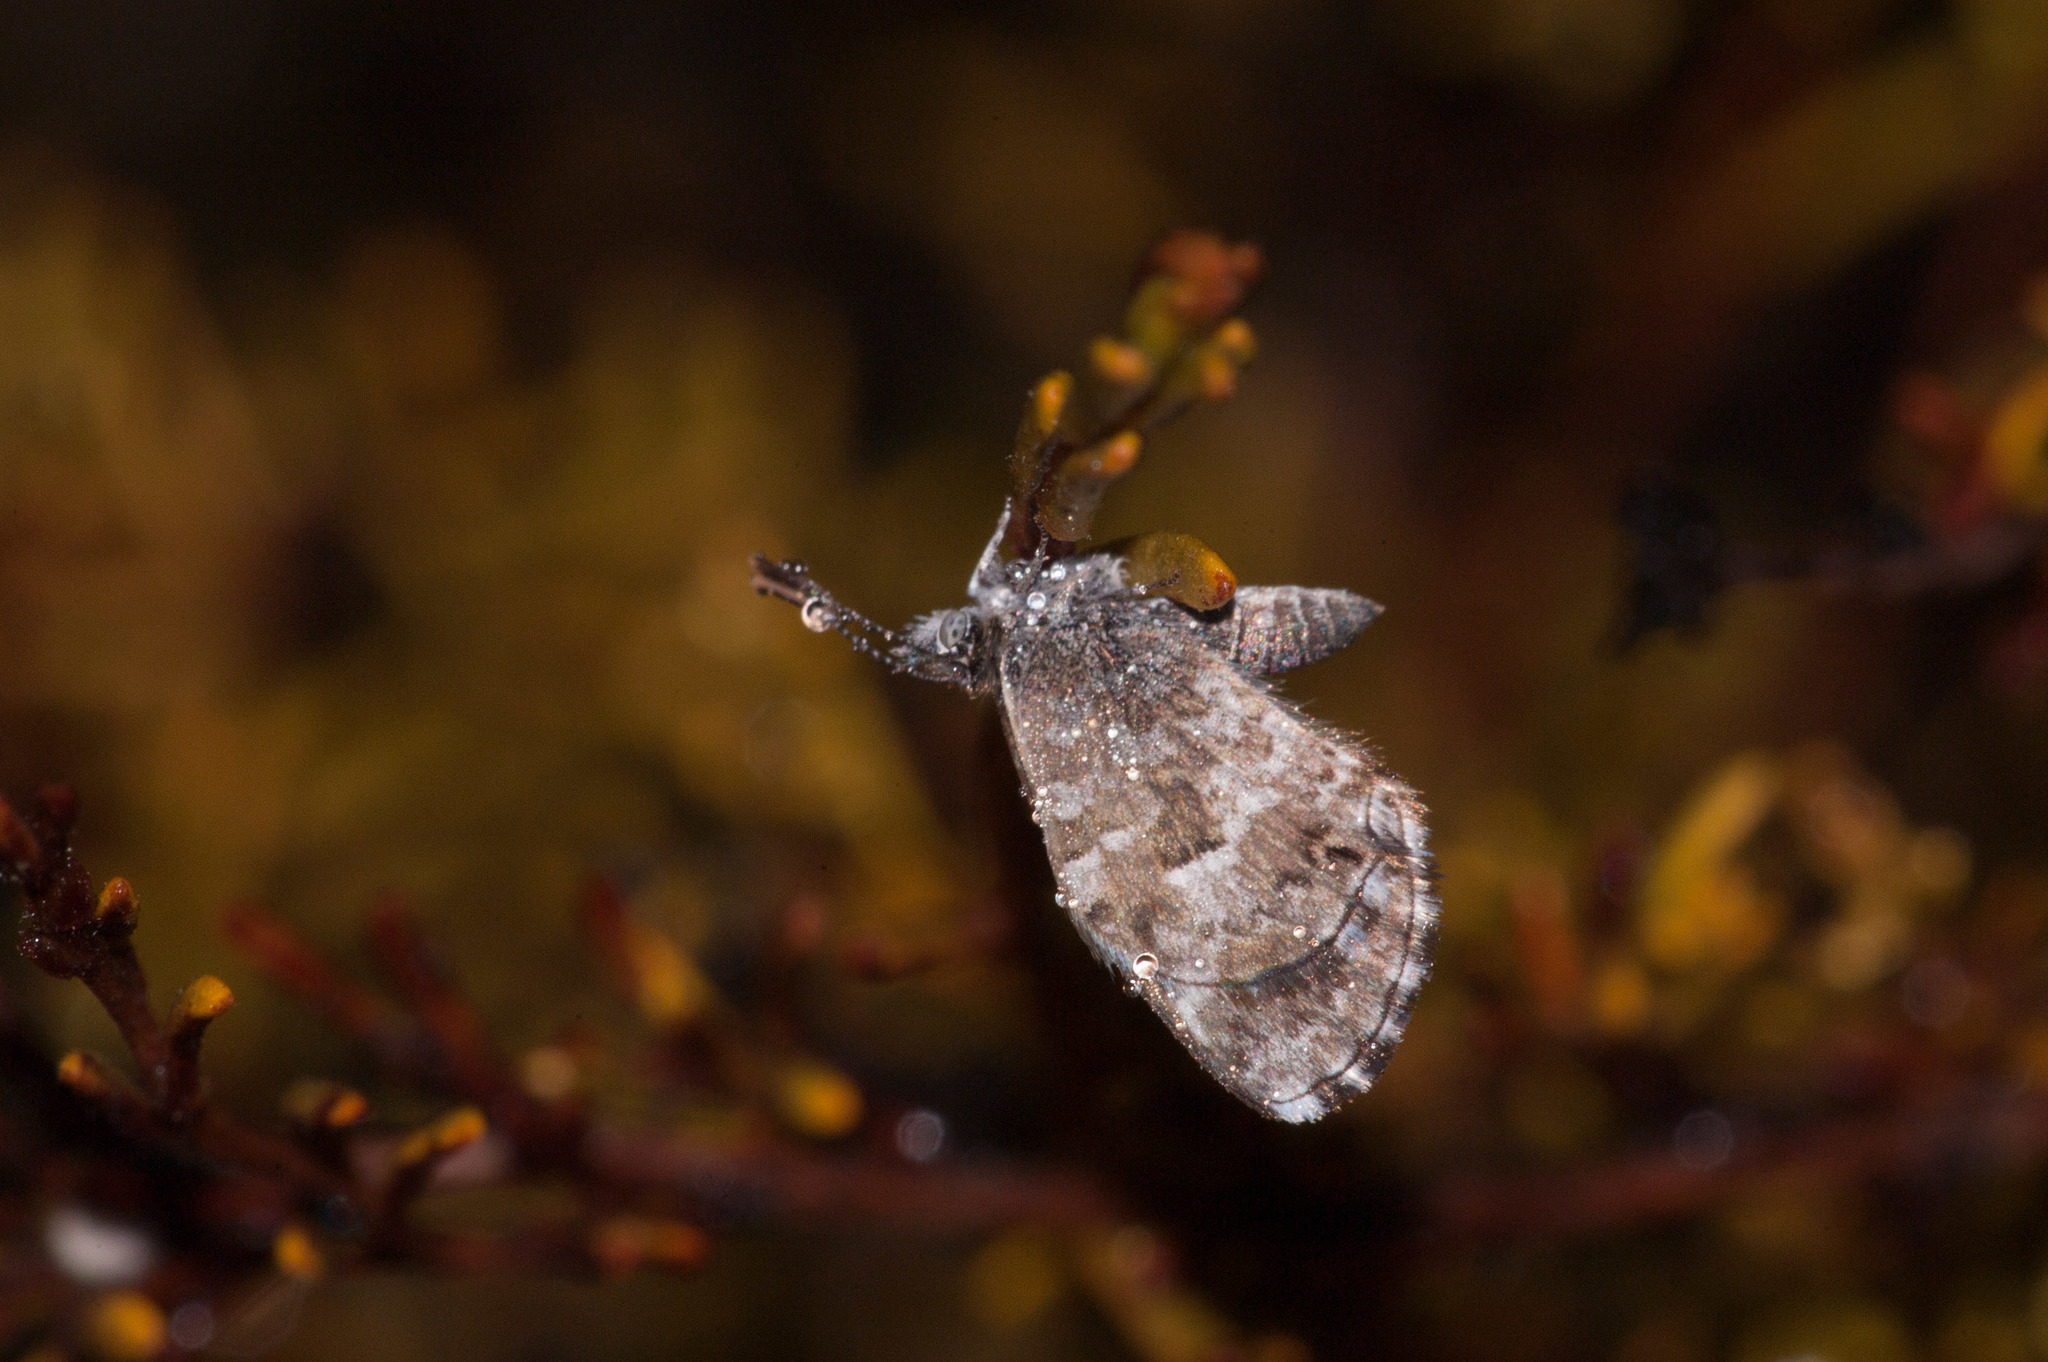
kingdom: Animalia
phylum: Arthropoda
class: Insecta
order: Lepidoptera
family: Lycaenidae
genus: Theclinesthes
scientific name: Theclinesthes serpentata
